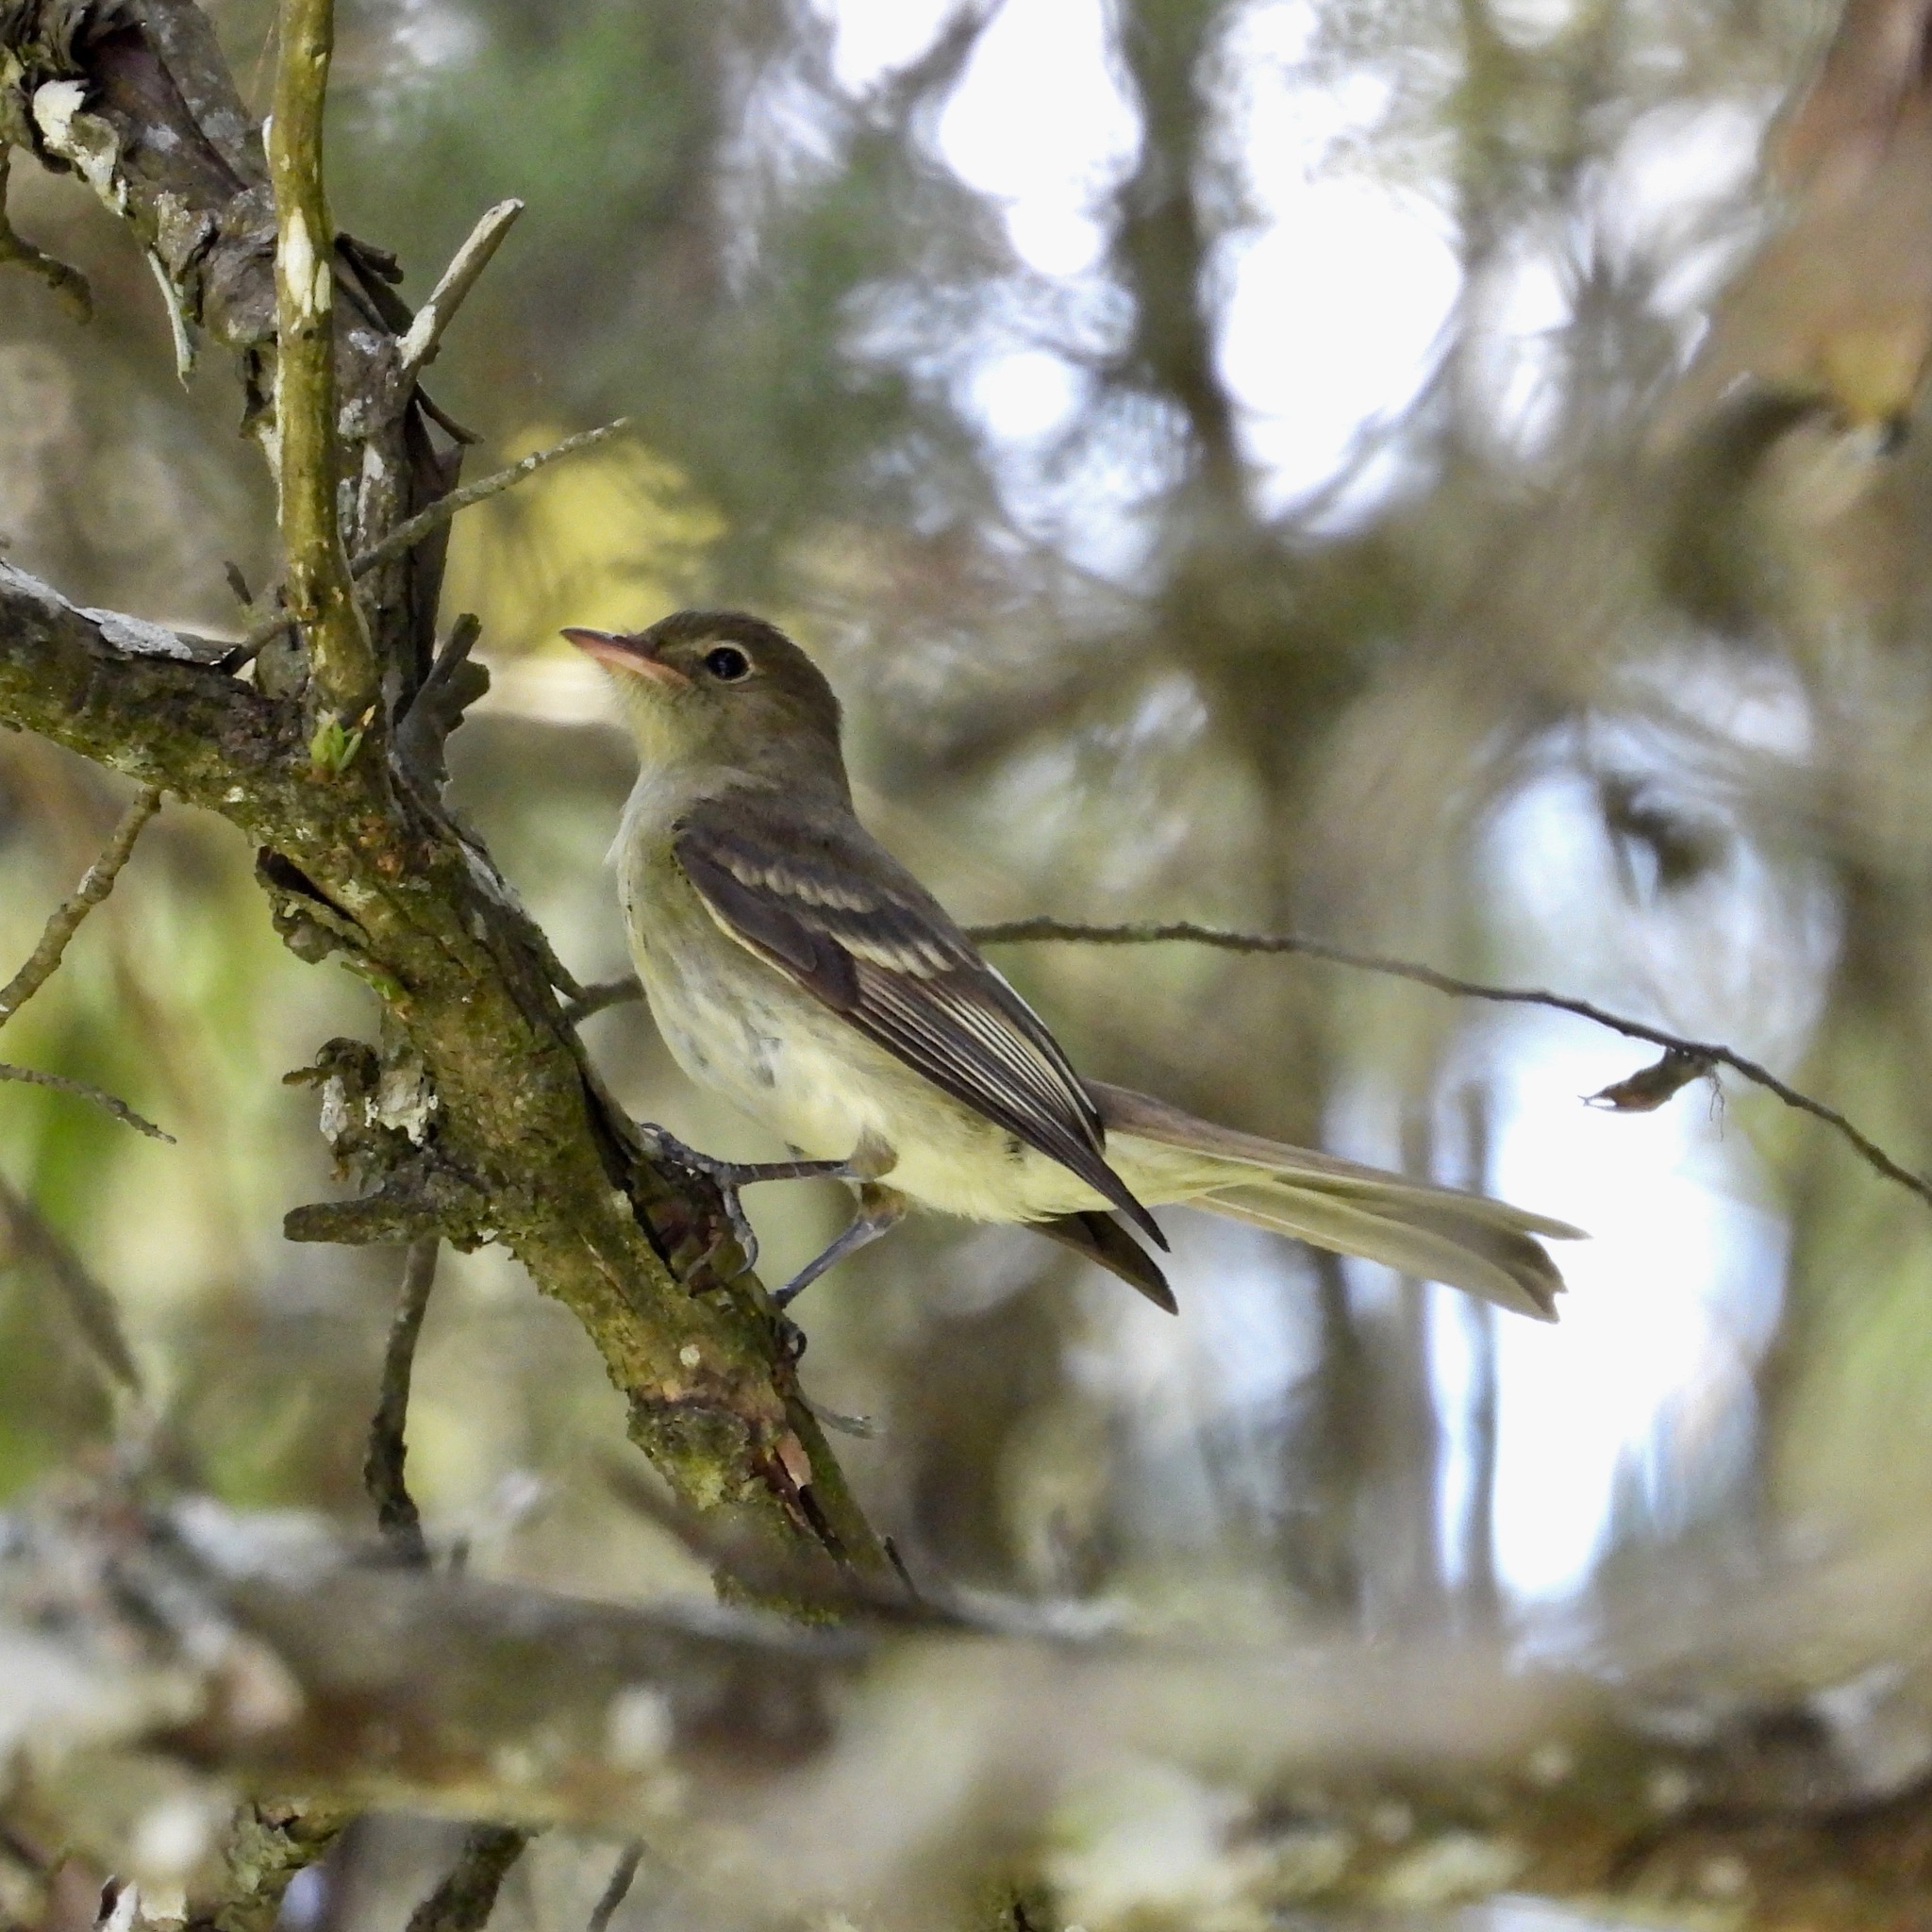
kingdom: Animalia
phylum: Chordata
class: Aves
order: Passeriformes
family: Tyrannidae
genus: Elaenia
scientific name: Elaenia frantzii
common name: Mountain elaenia
